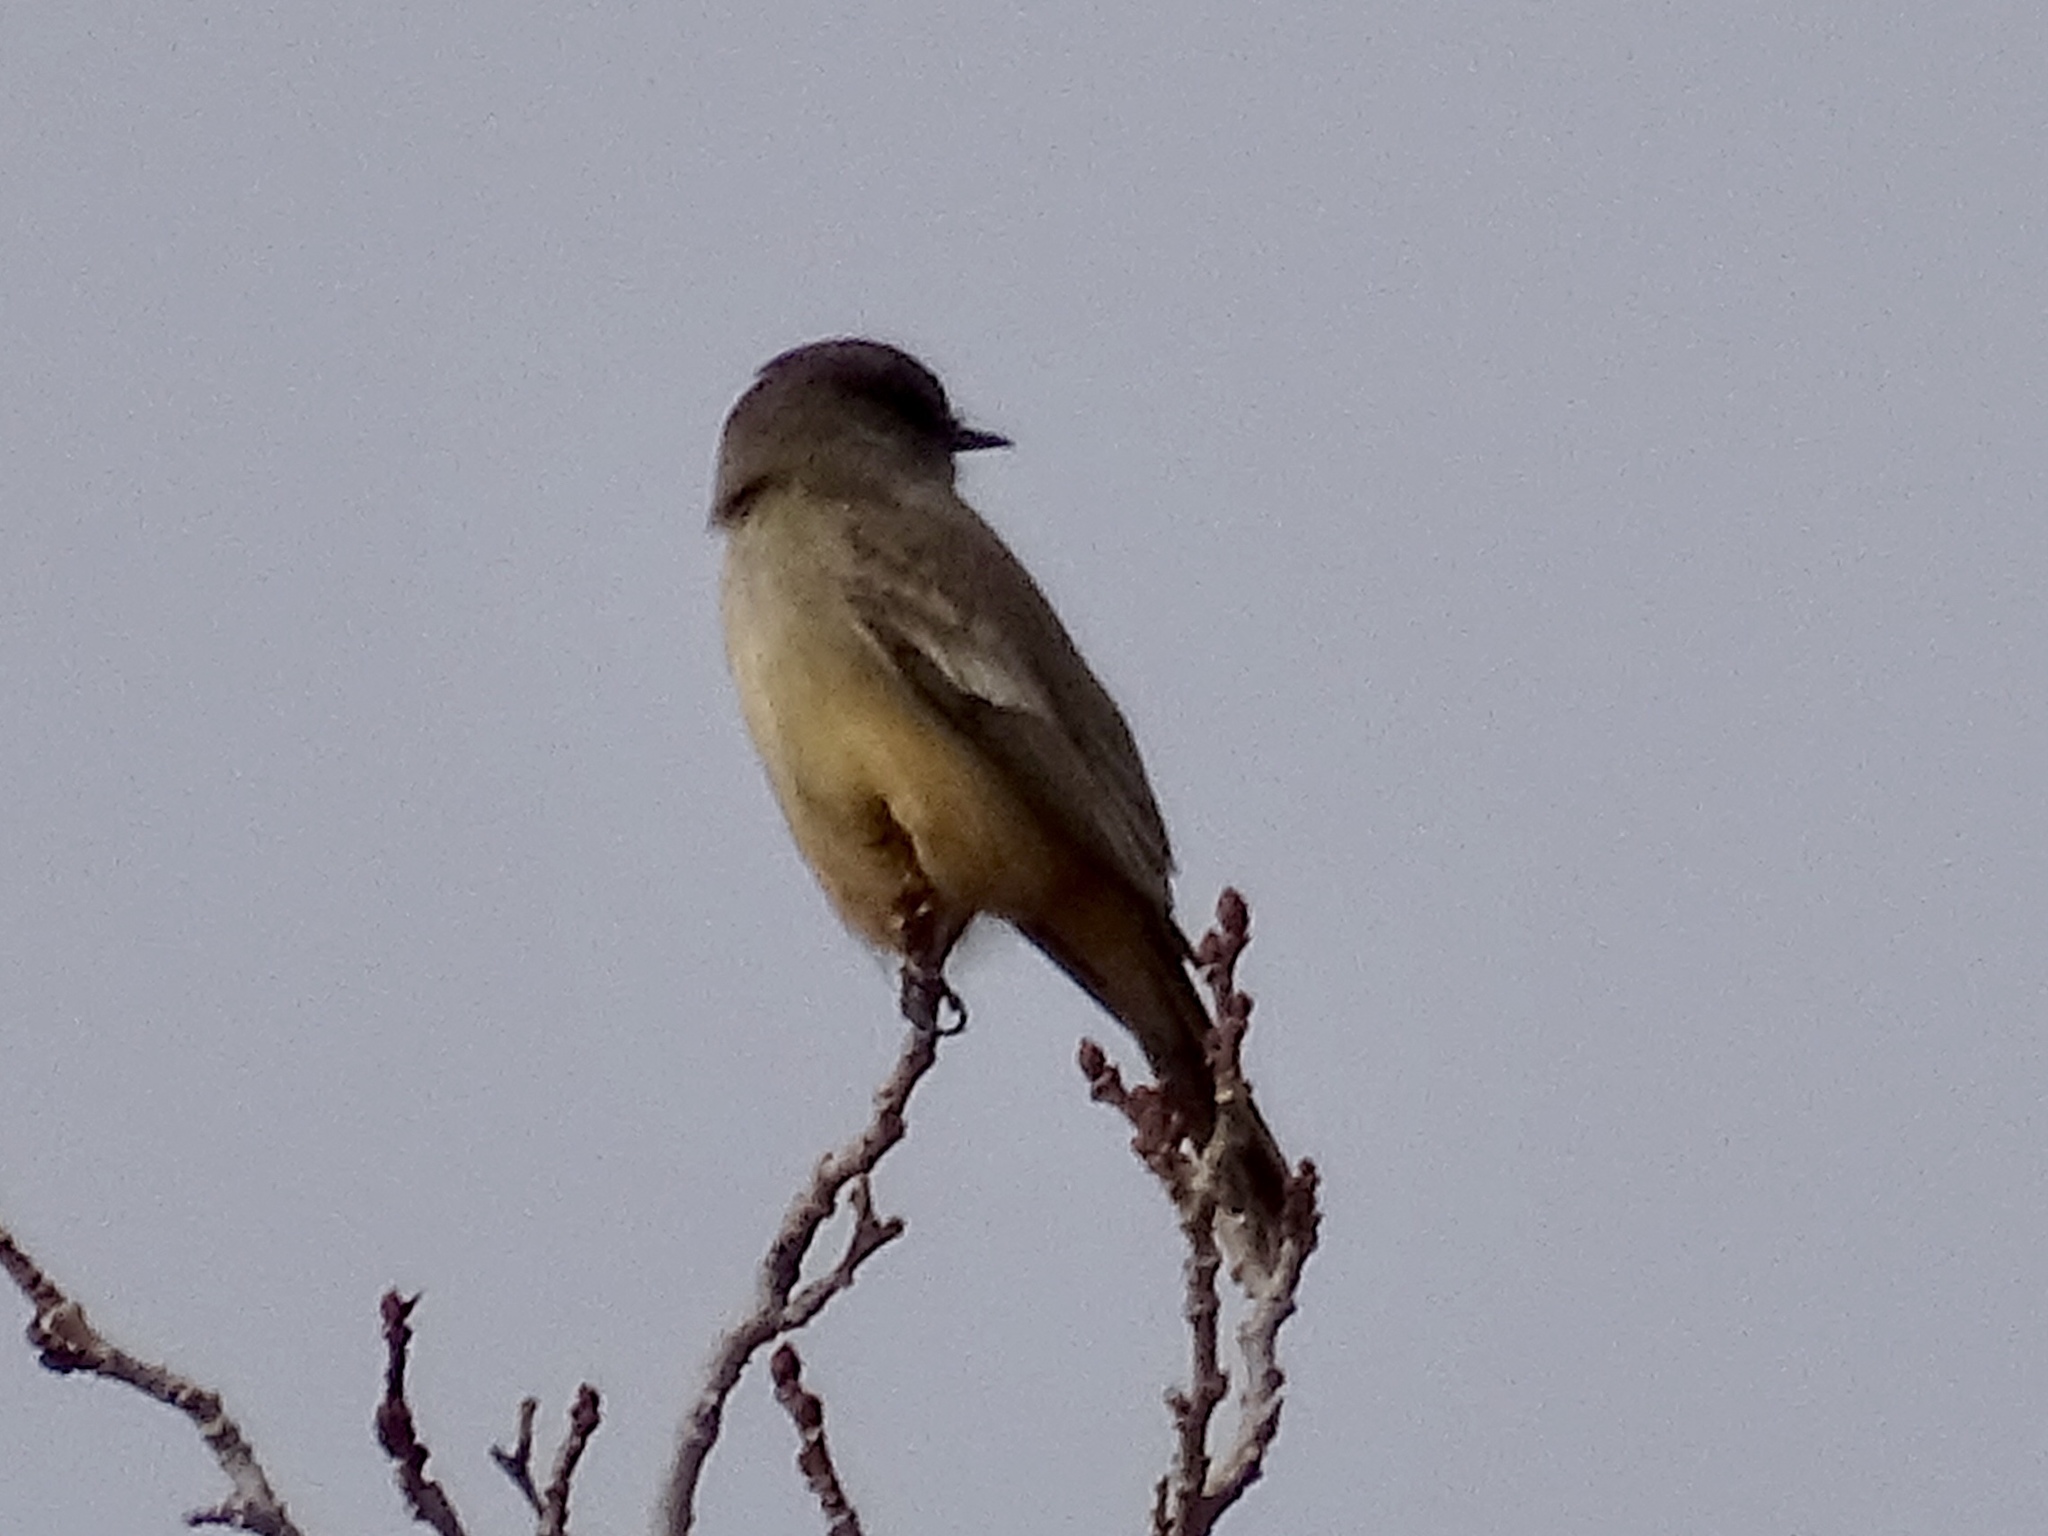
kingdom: Animalia
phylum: Chordata
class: Aves
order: Passeriformes
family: Tyrannidae
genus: Sayornis
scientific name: Sayornis saya
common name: Say's phoebe
